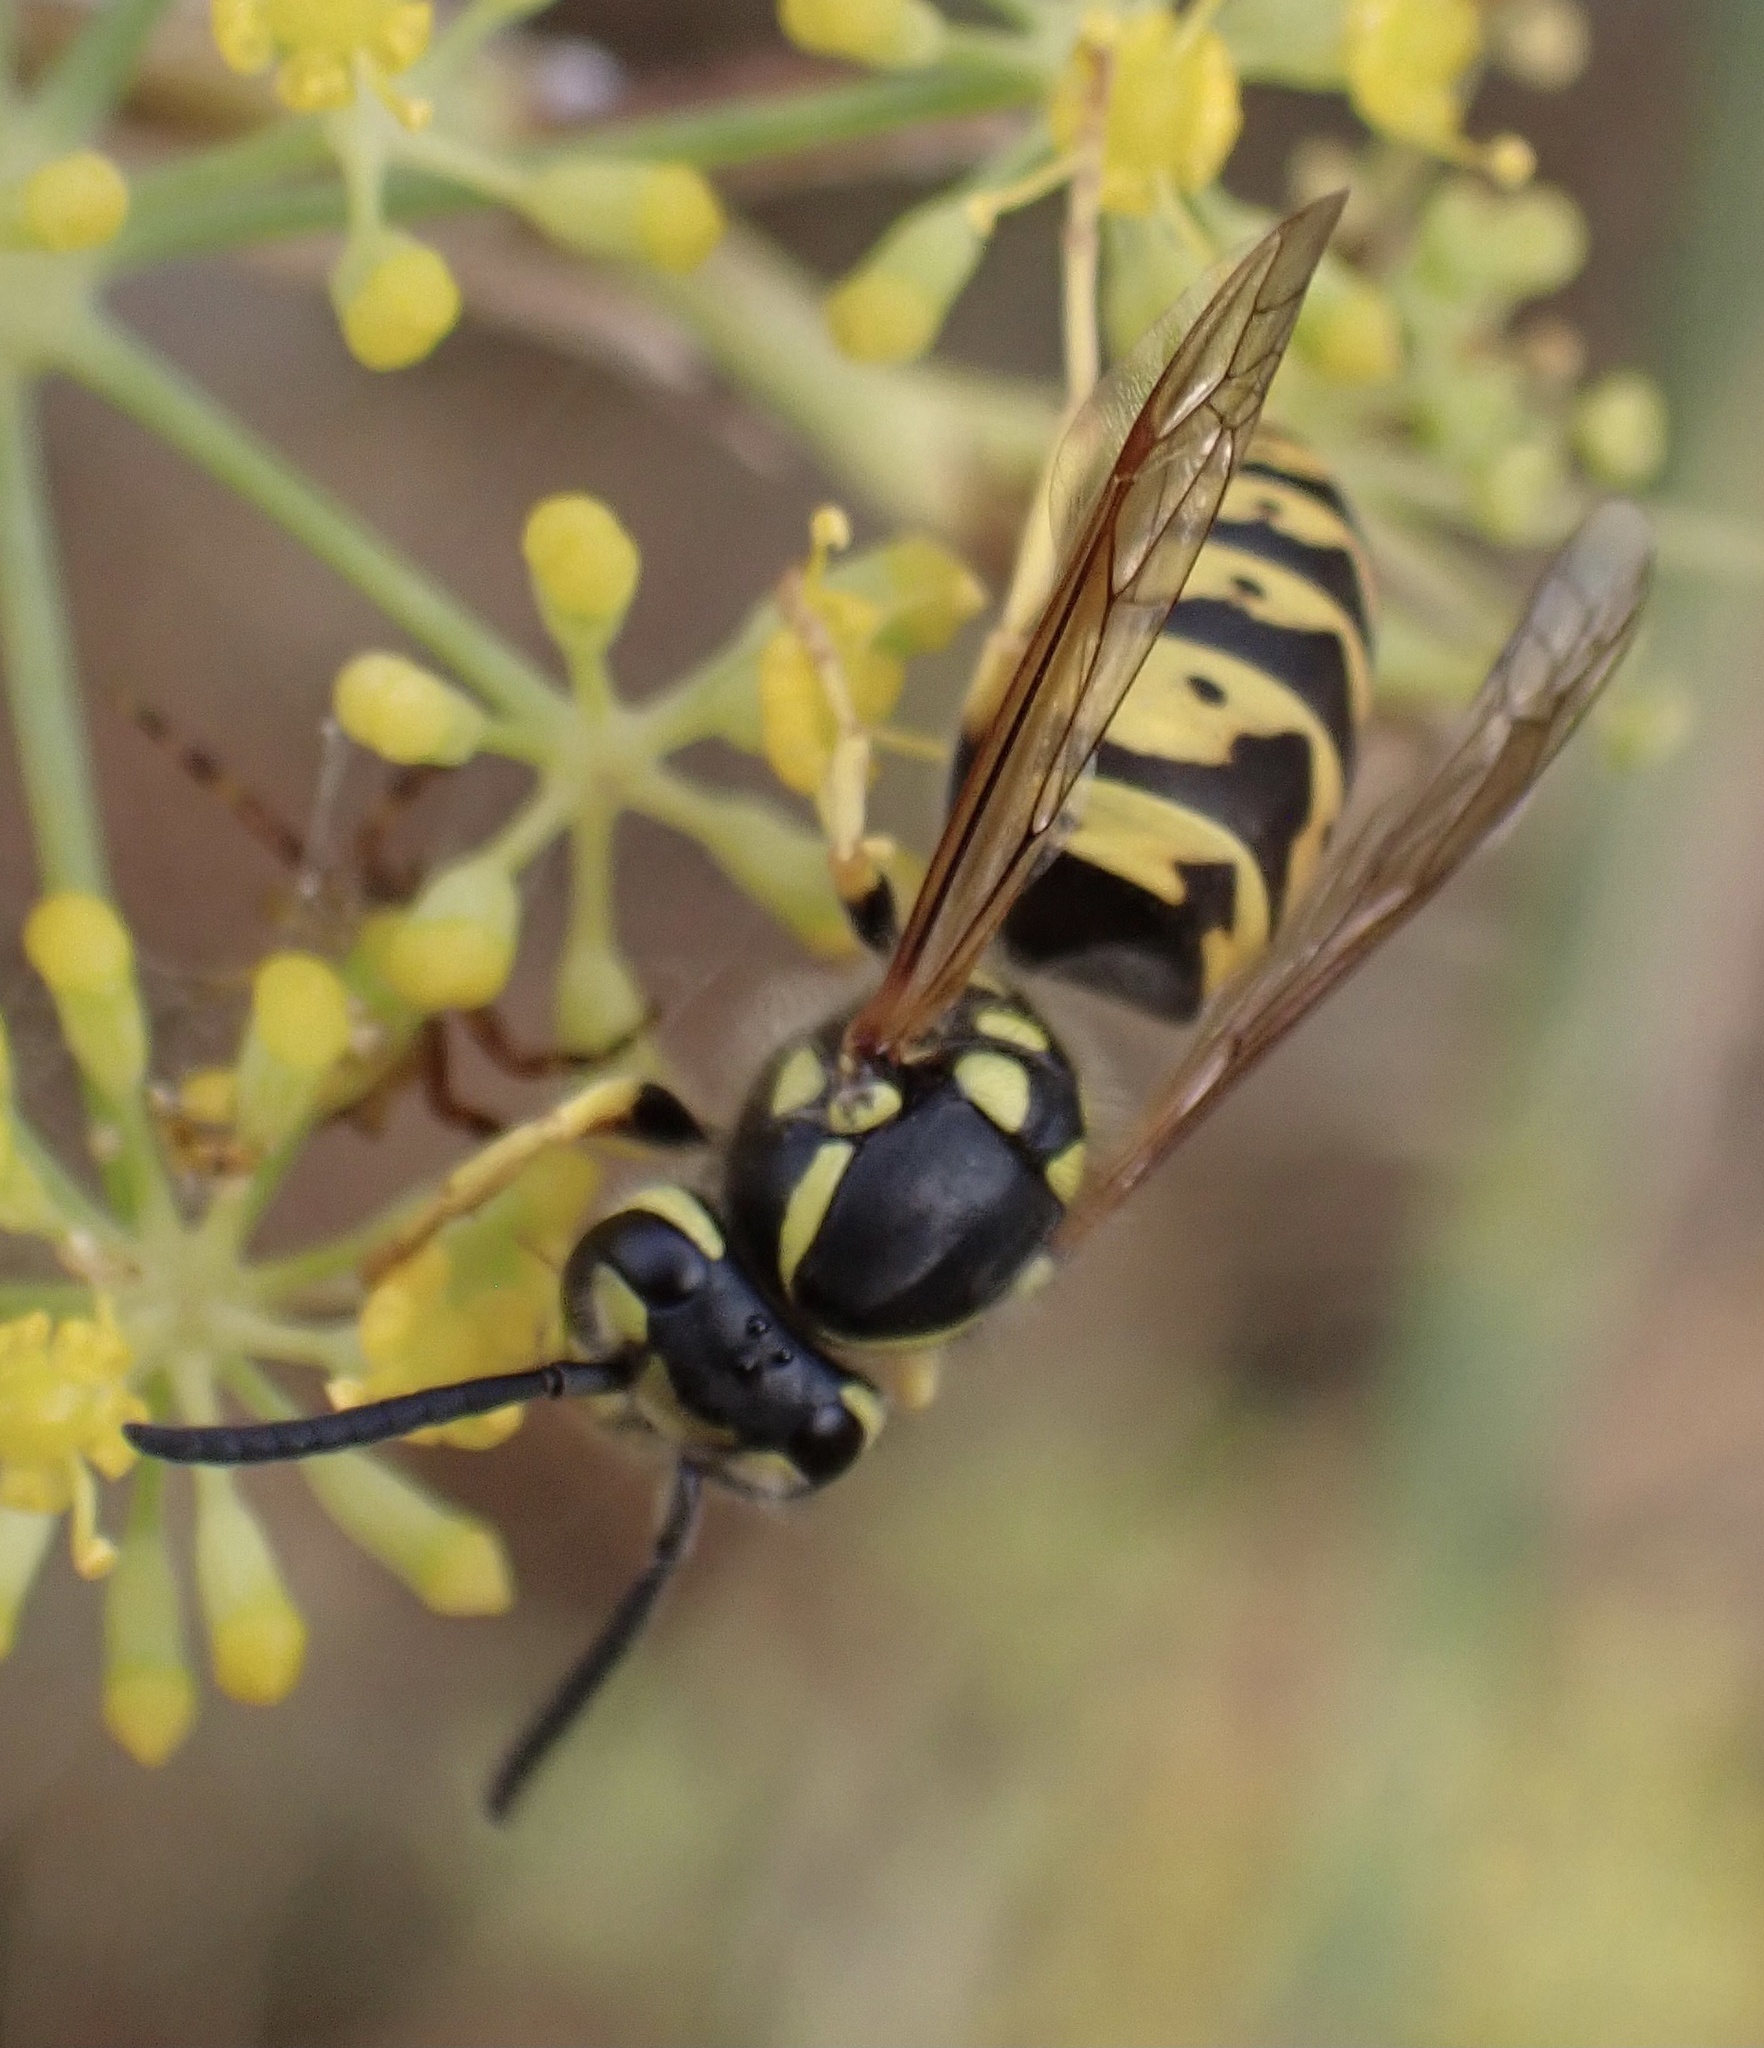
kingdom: Animalia
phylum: Arthropoda
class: Insecta
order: Hymenoptera
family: Vespidae
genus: Vespula
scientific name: Vespula germanica
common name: German wasp
